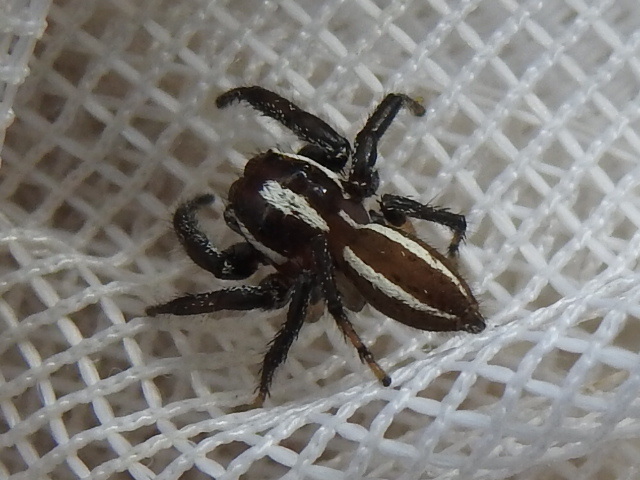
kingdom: Animalia
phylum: Arthropoda
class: Arachnida
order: Araneae
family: Salticidae
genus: Colonus
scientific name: Colonus puerperus
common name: Jumping spiders
